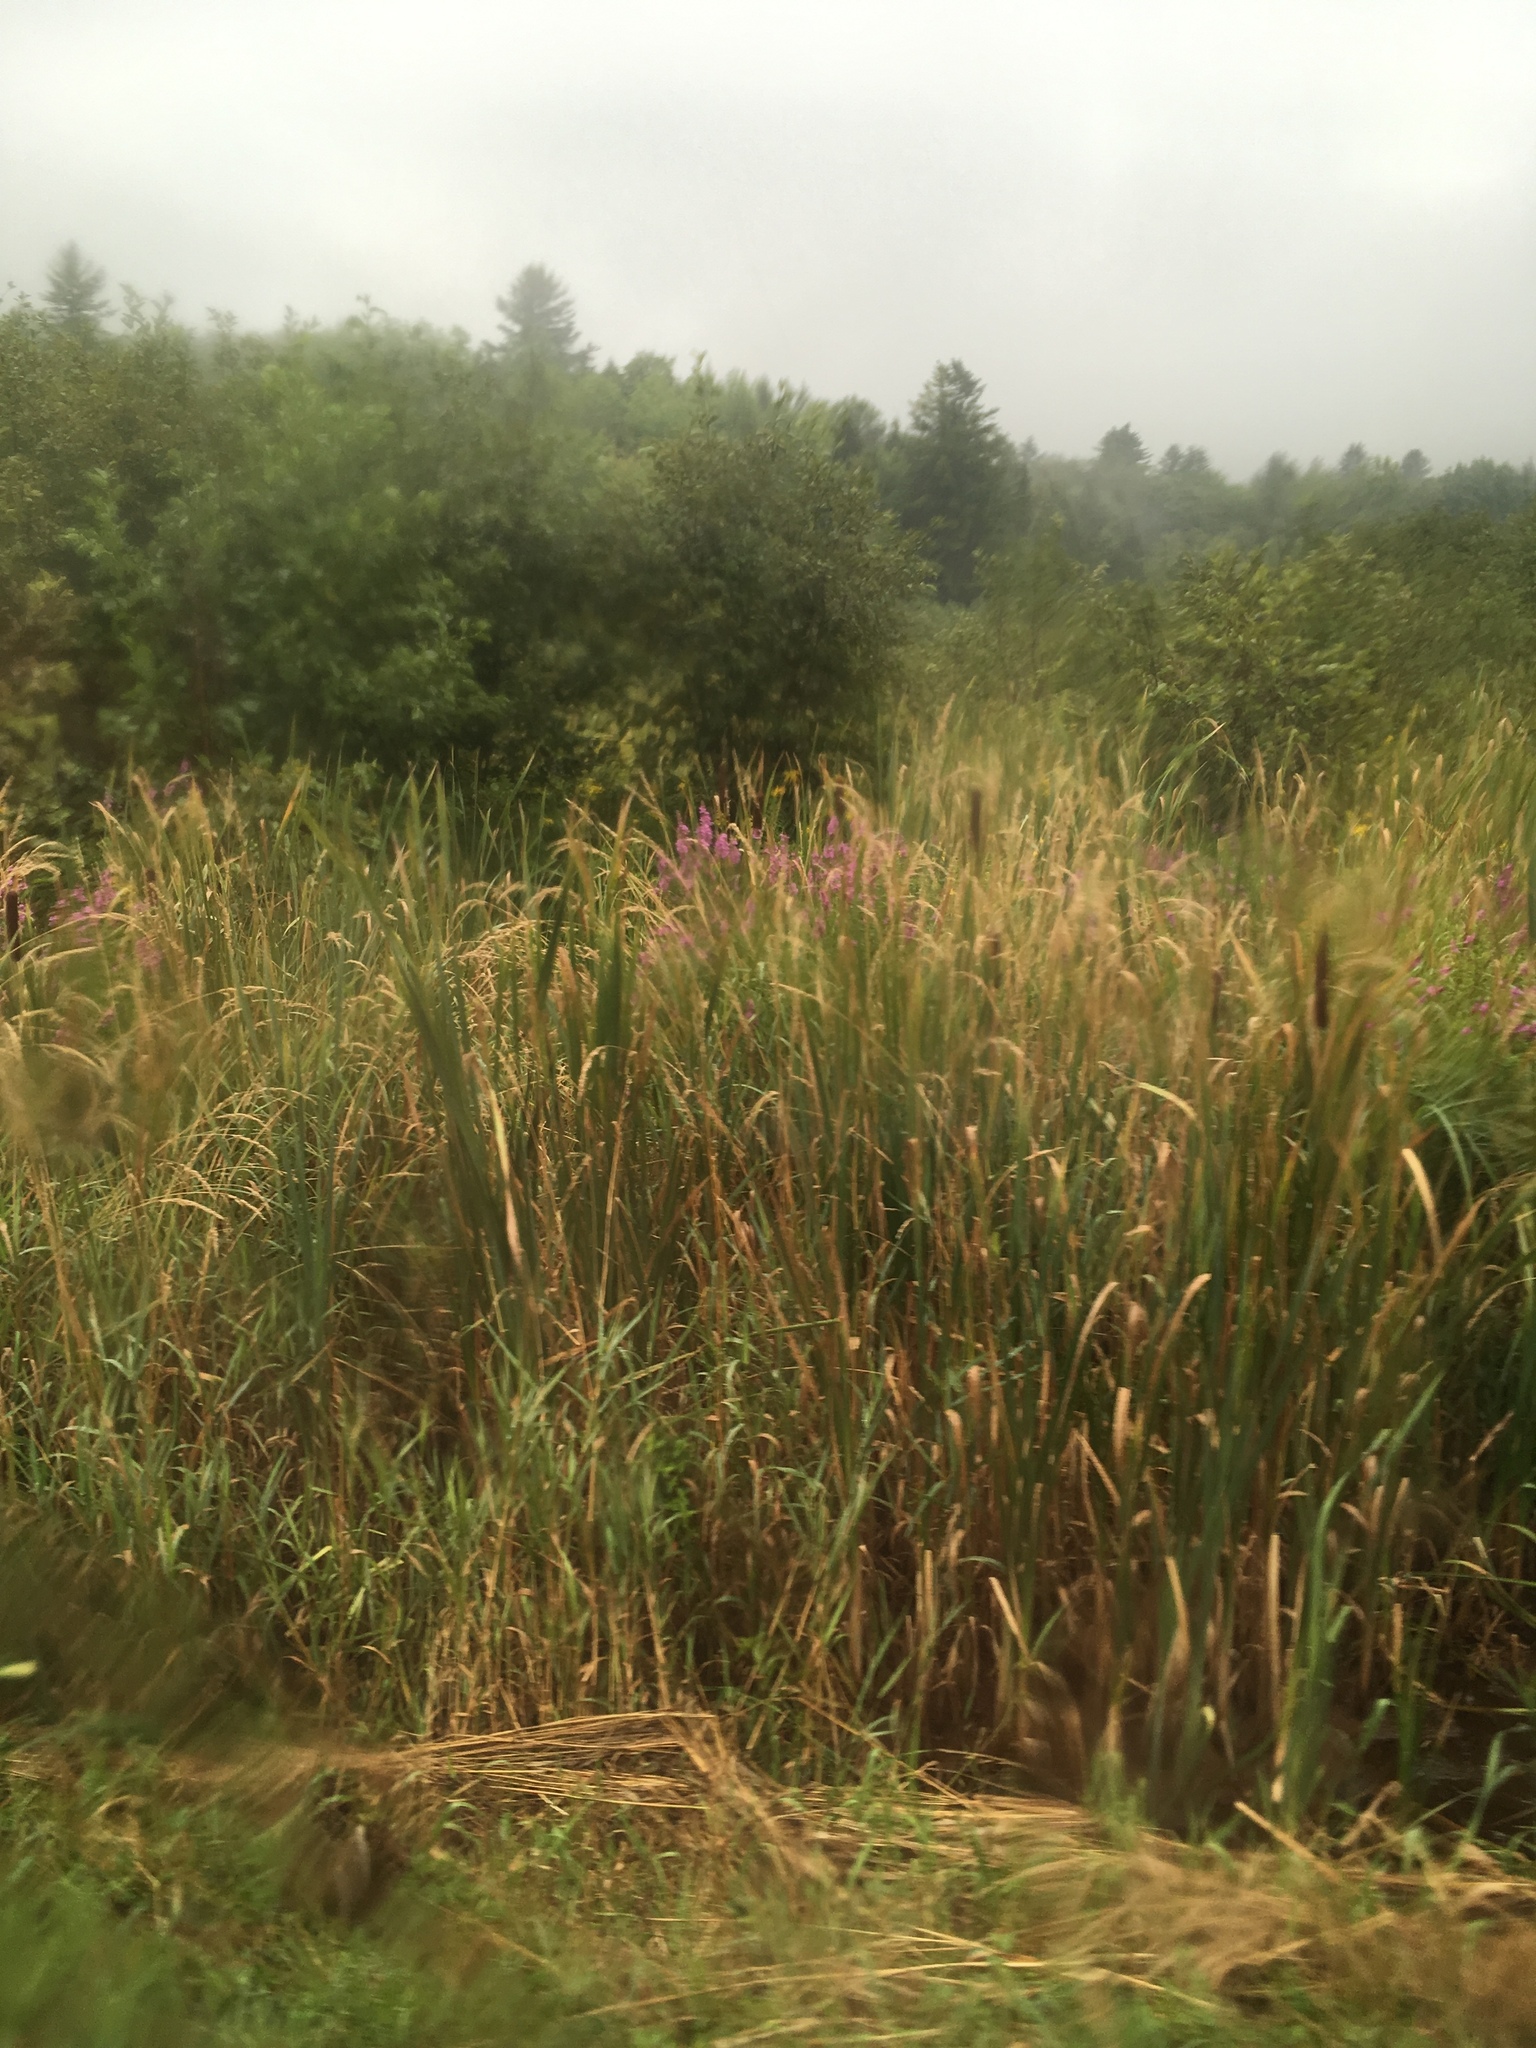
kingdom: Plantae
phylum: Tracheophyta
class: Magnoliopsida
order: Myrtales
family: Lythraceae
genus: Lythrum
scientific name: Lythrum salicaria
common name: Purple loosestrife
